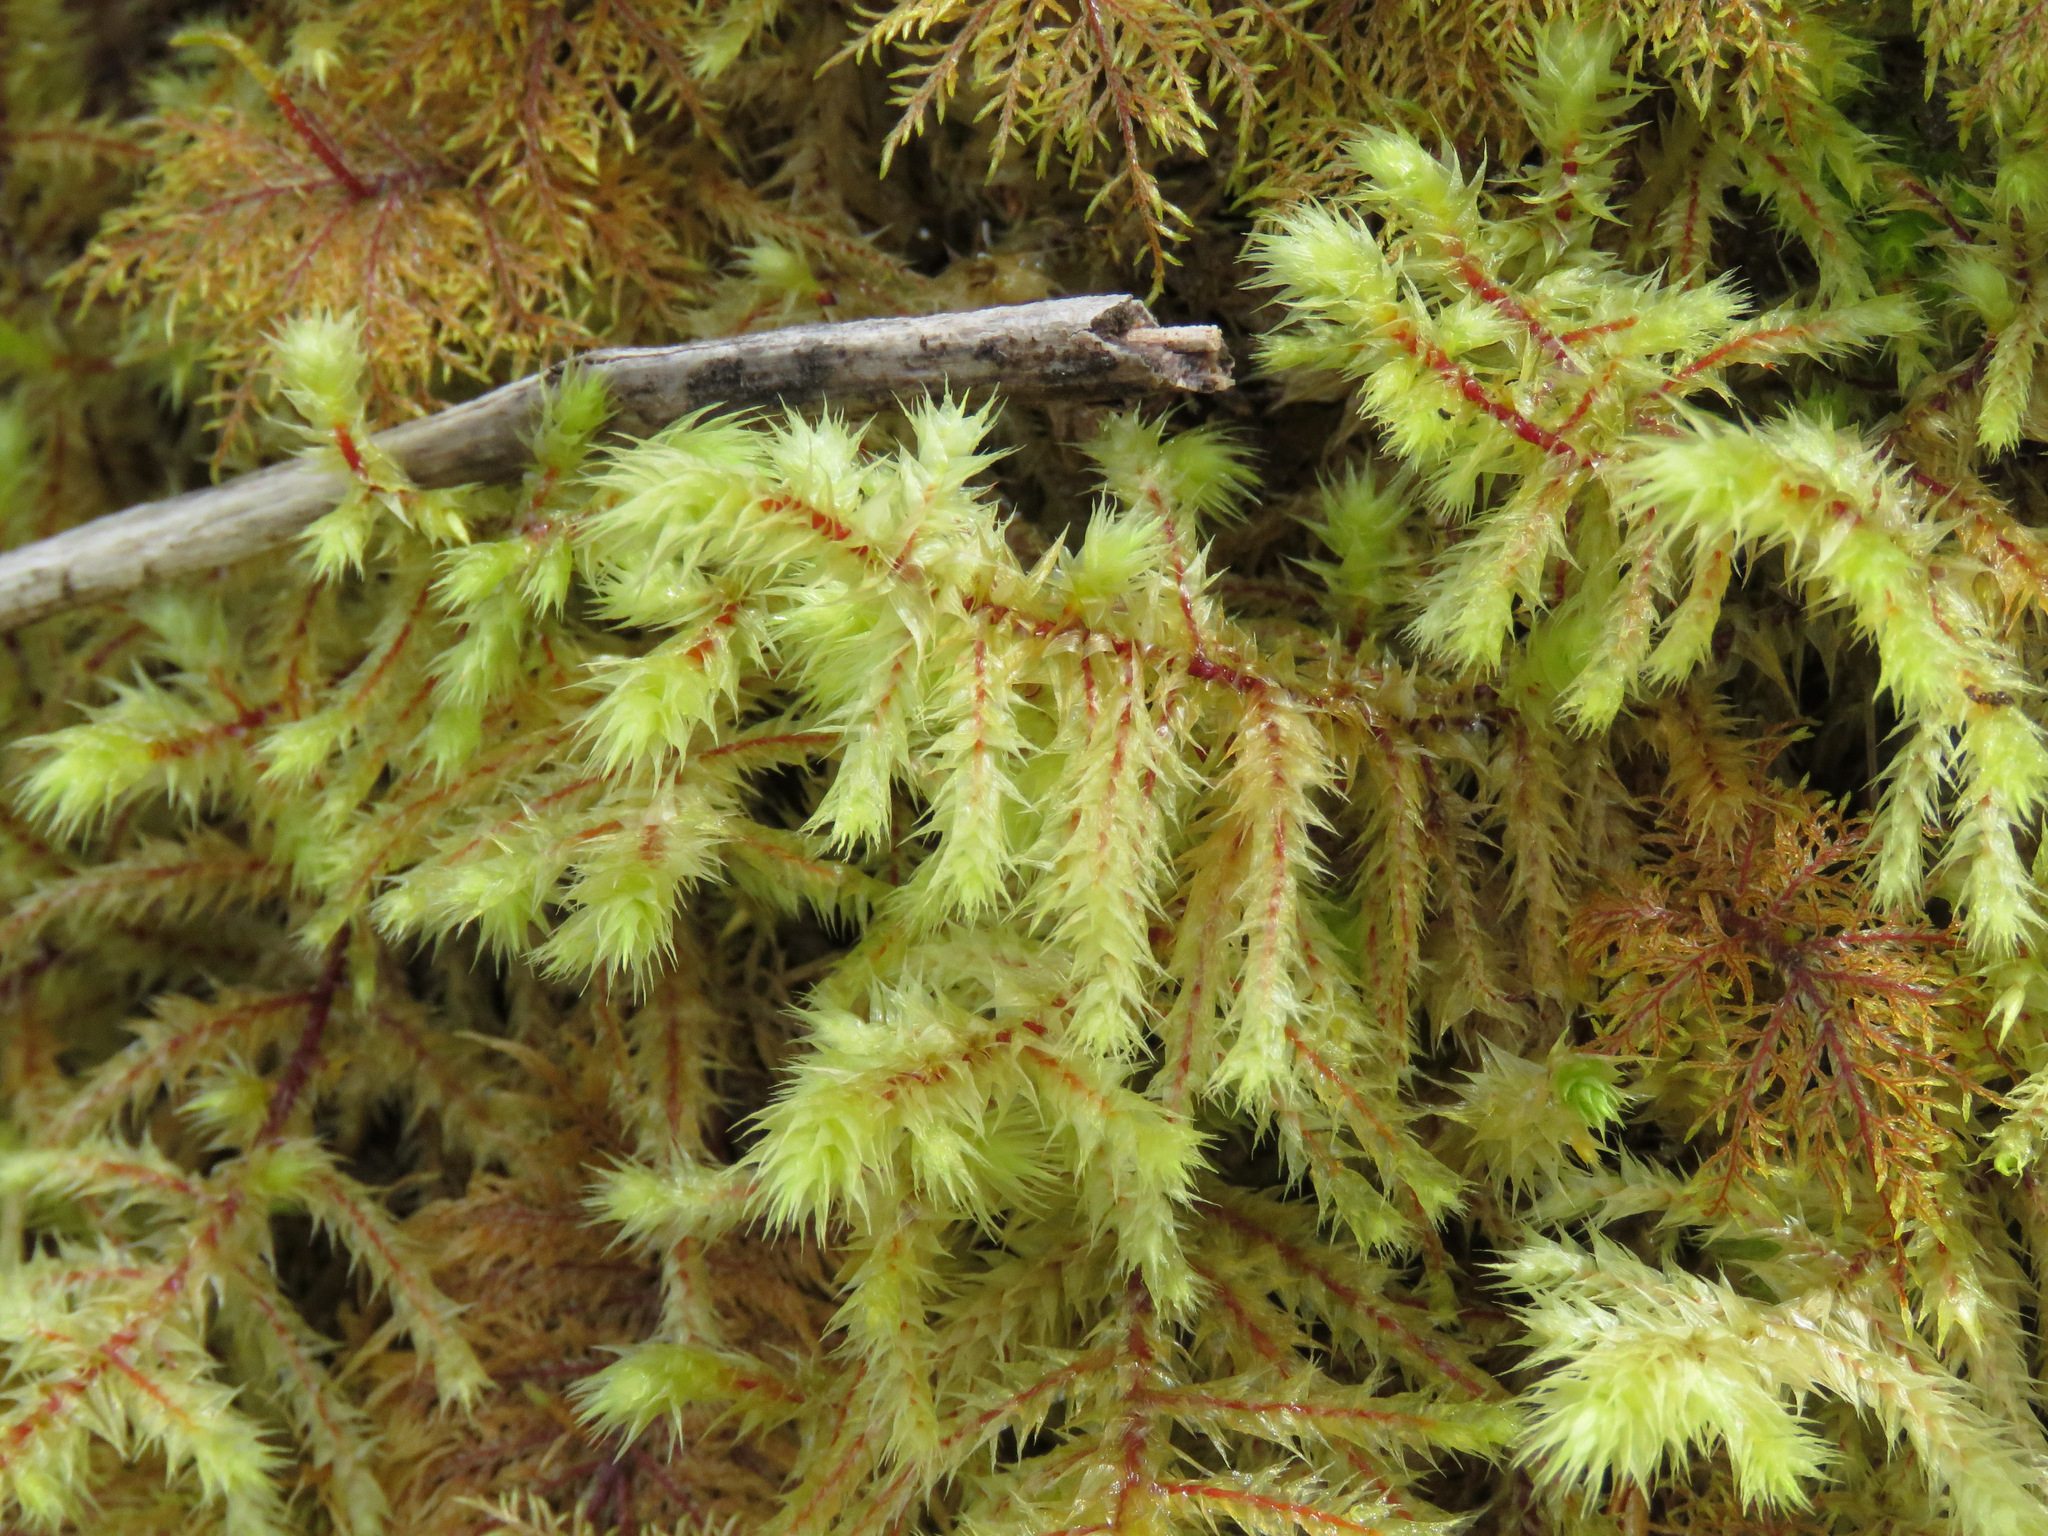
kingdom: Plantae
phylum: Bryophyta
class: Bryopsida
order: Hypnales
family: Hylocomiaceae
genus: Hylocomiadelphus
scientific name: Hylocomiadelphus triquetrus
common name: Rough goose neck moss
